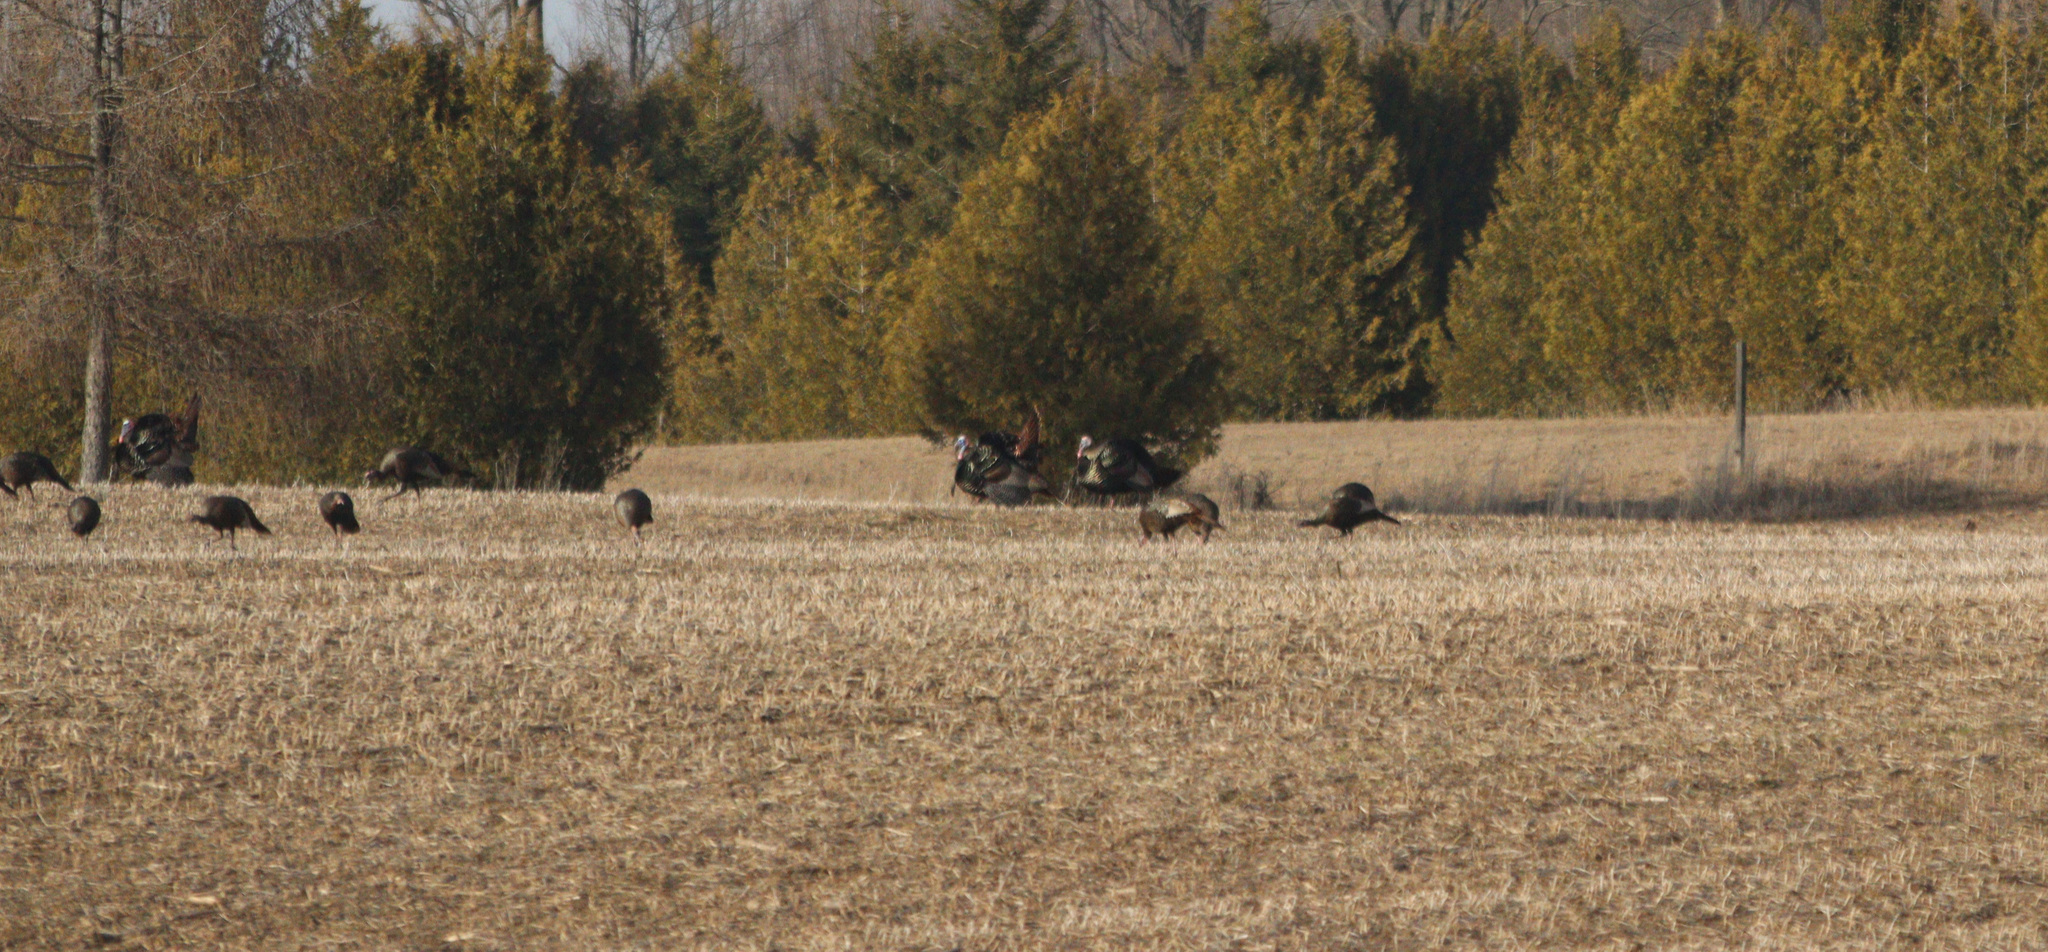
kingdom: Animalia
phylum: Chordata
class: Aves
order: Galliformes
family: Phasianidae
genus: Meleagris
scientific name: Meleagris gallopavo
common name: Wild turkey
